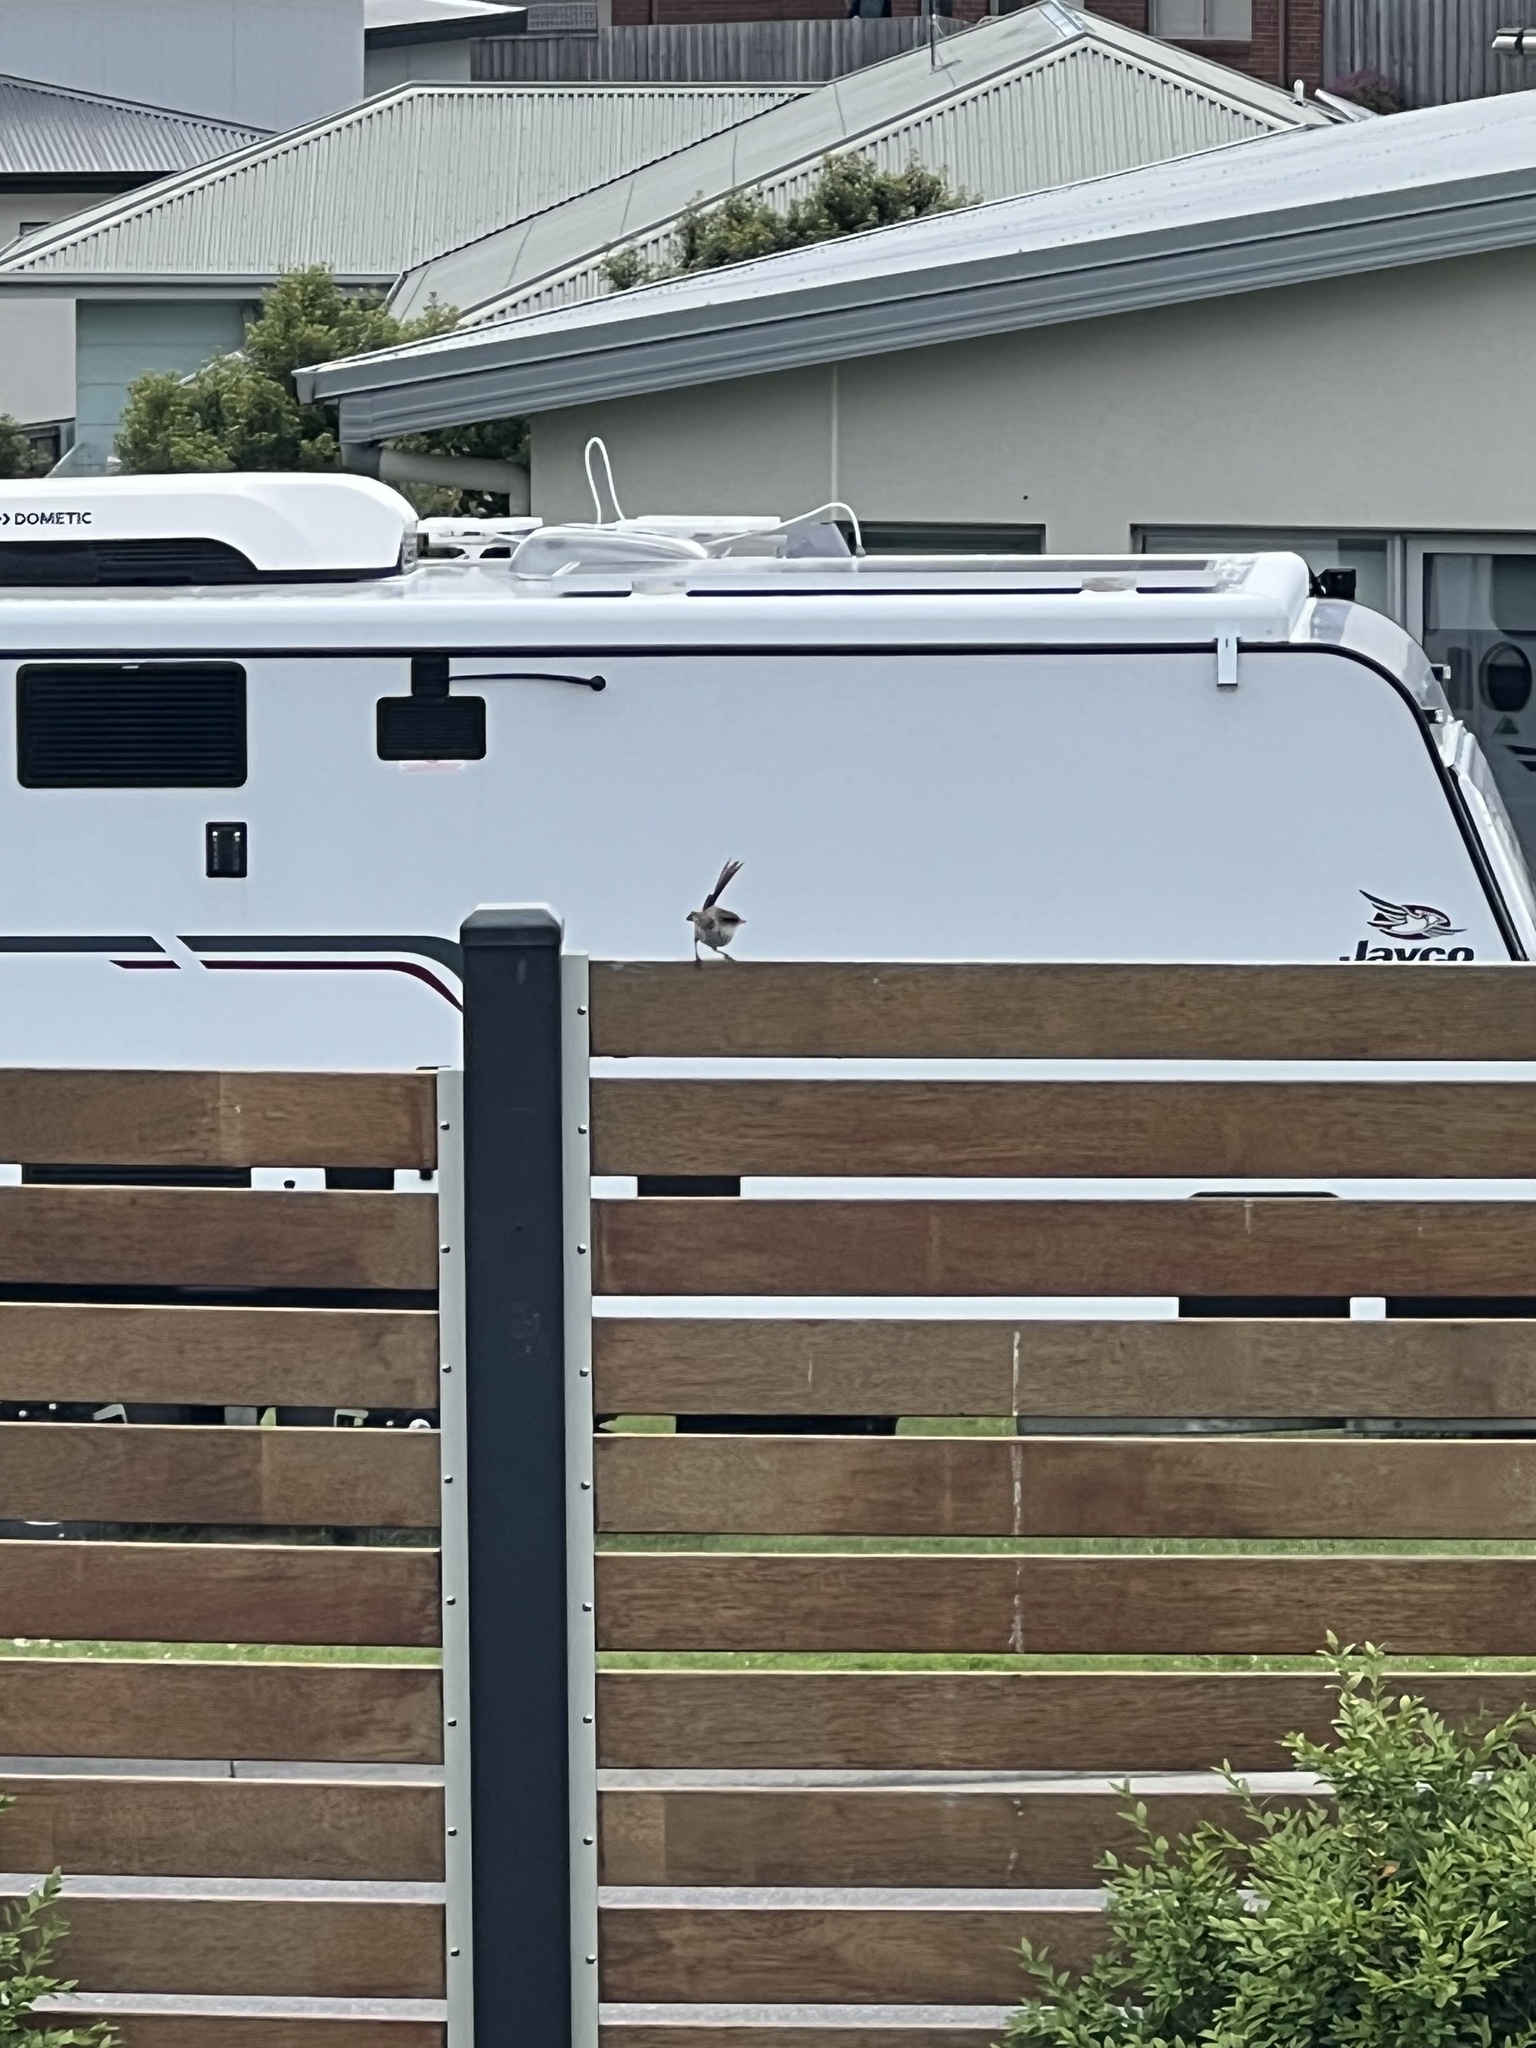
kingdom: Animalia
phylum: Chordata
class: Aves
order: Passeriformes
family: Maluridae
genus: Malurus
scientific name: Malurus cyaneus
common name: Superb fairywren
